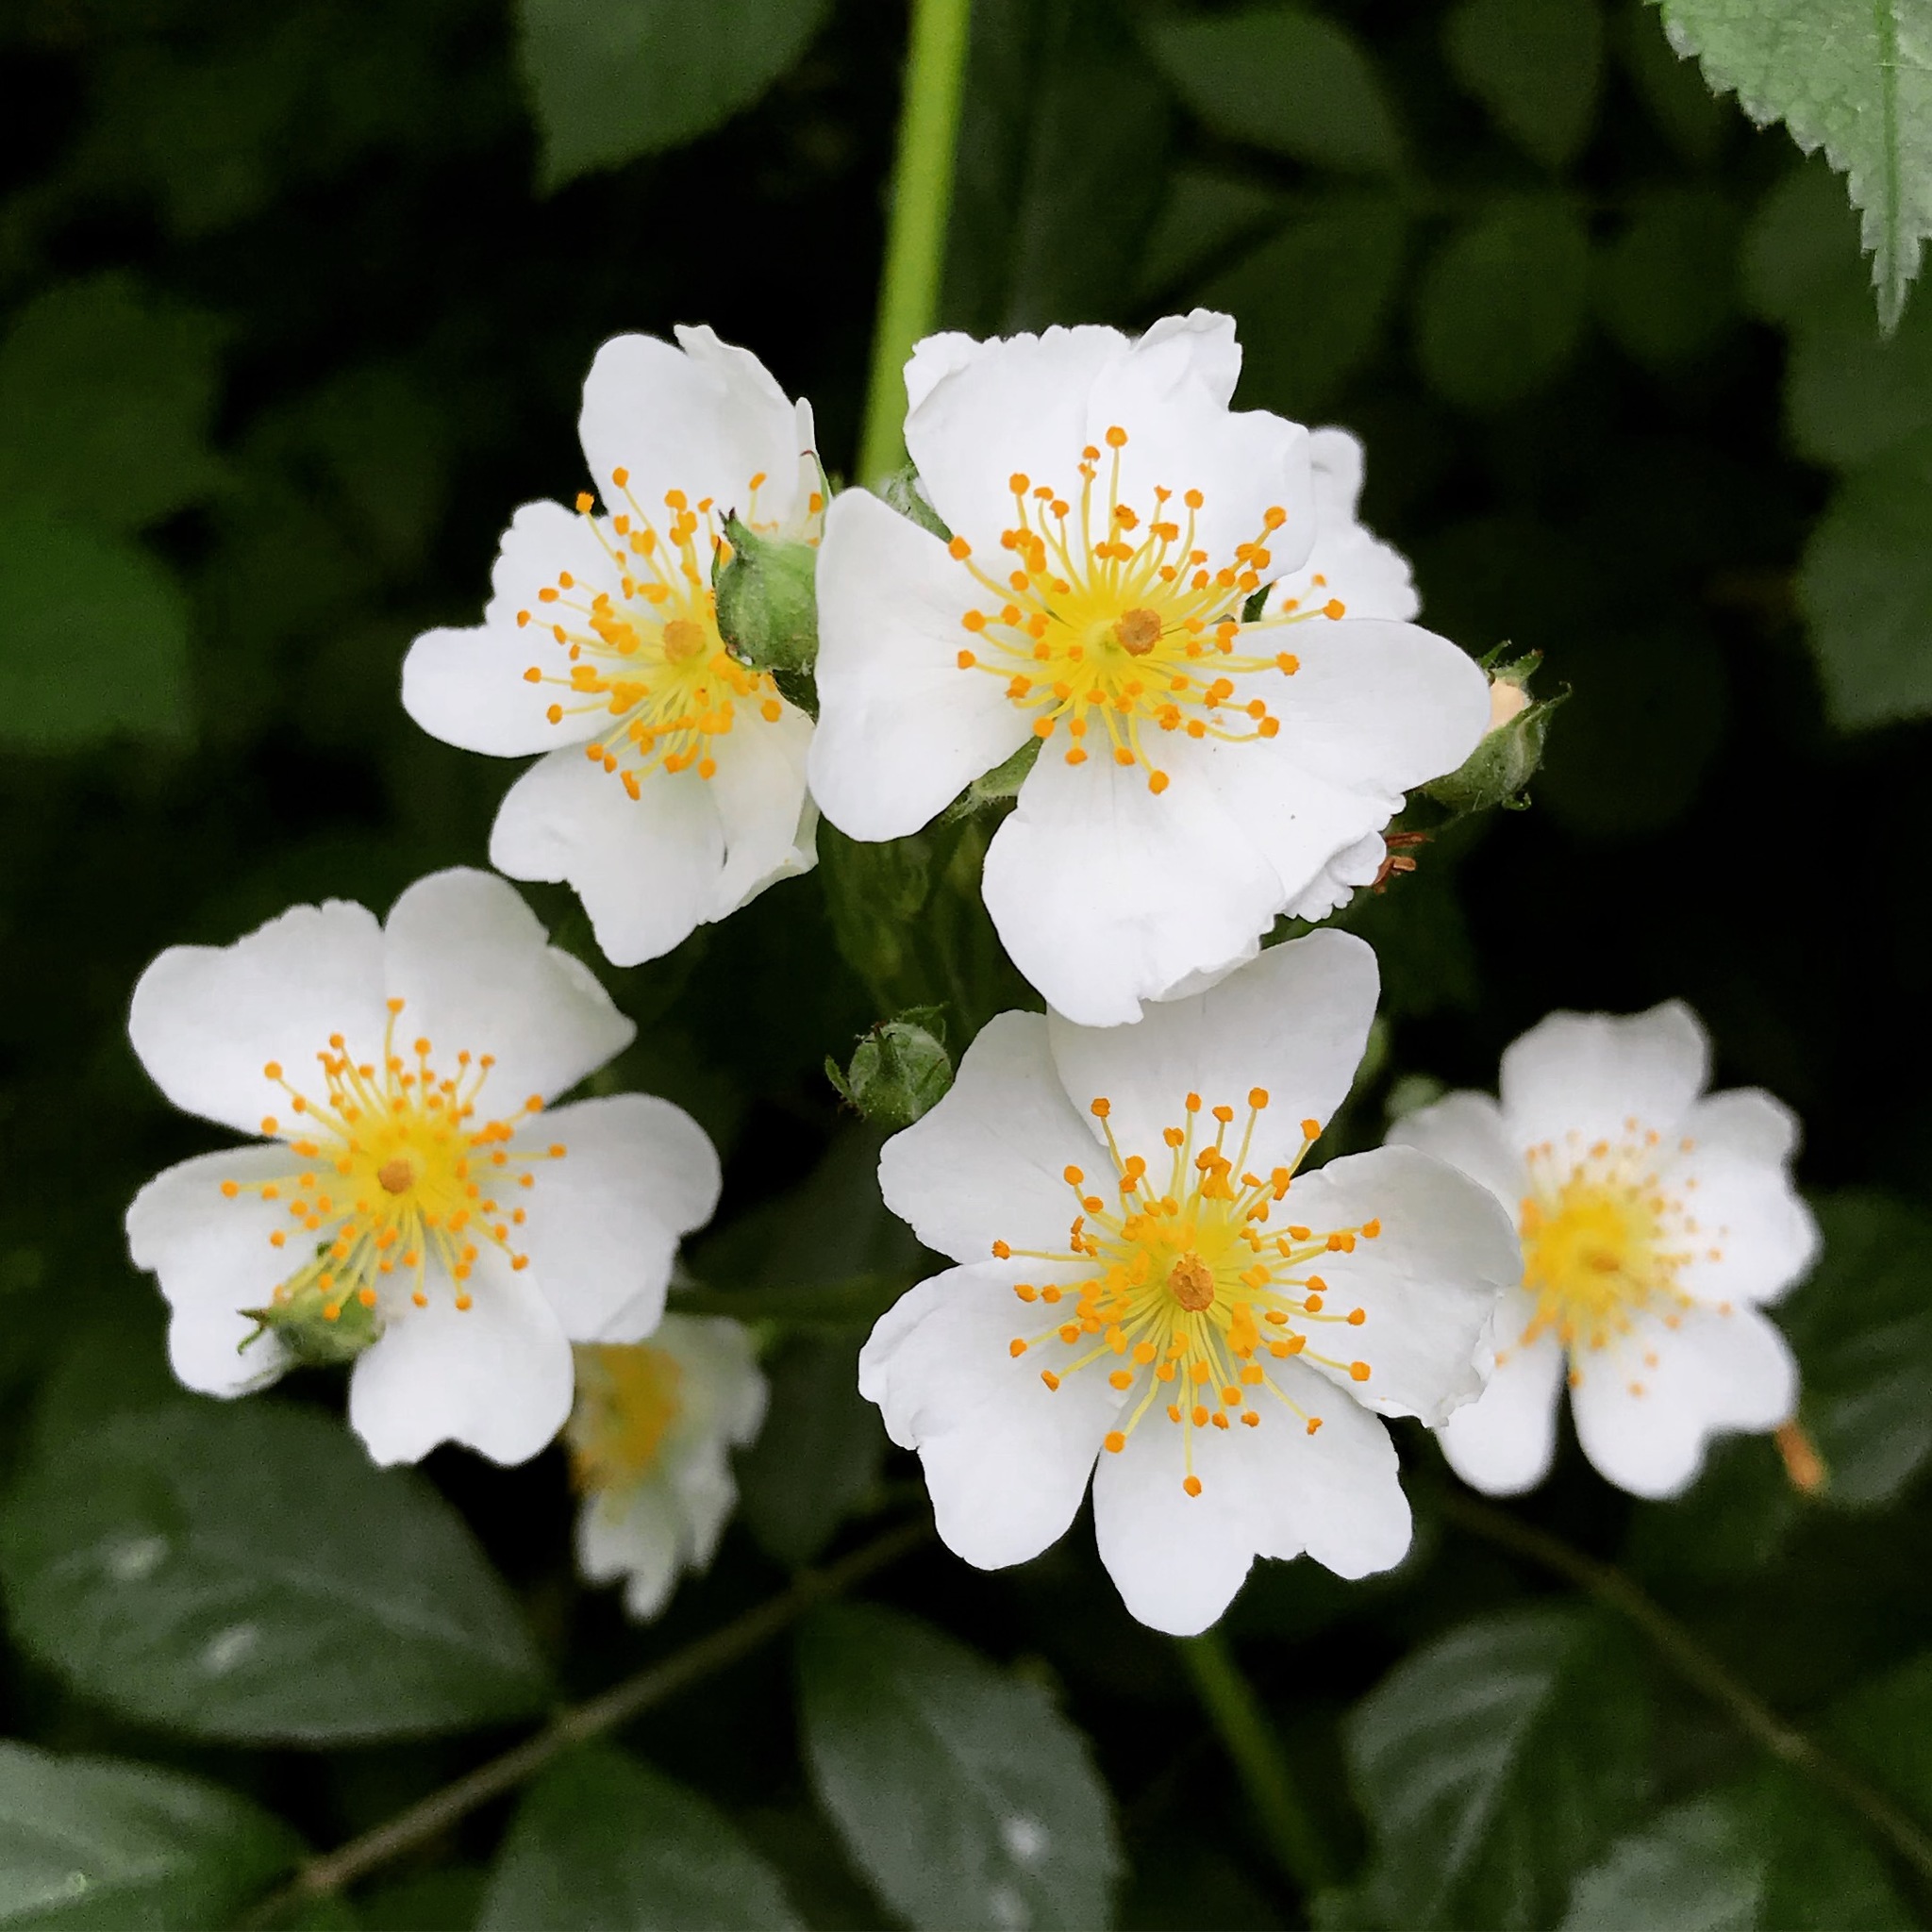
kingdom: Plantae
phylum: Tracheophyta
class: Magnoliopsida
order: Rosales
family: Rosaceae
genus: Rosa
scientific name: Rosa multiflora
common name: Multiflora rose
